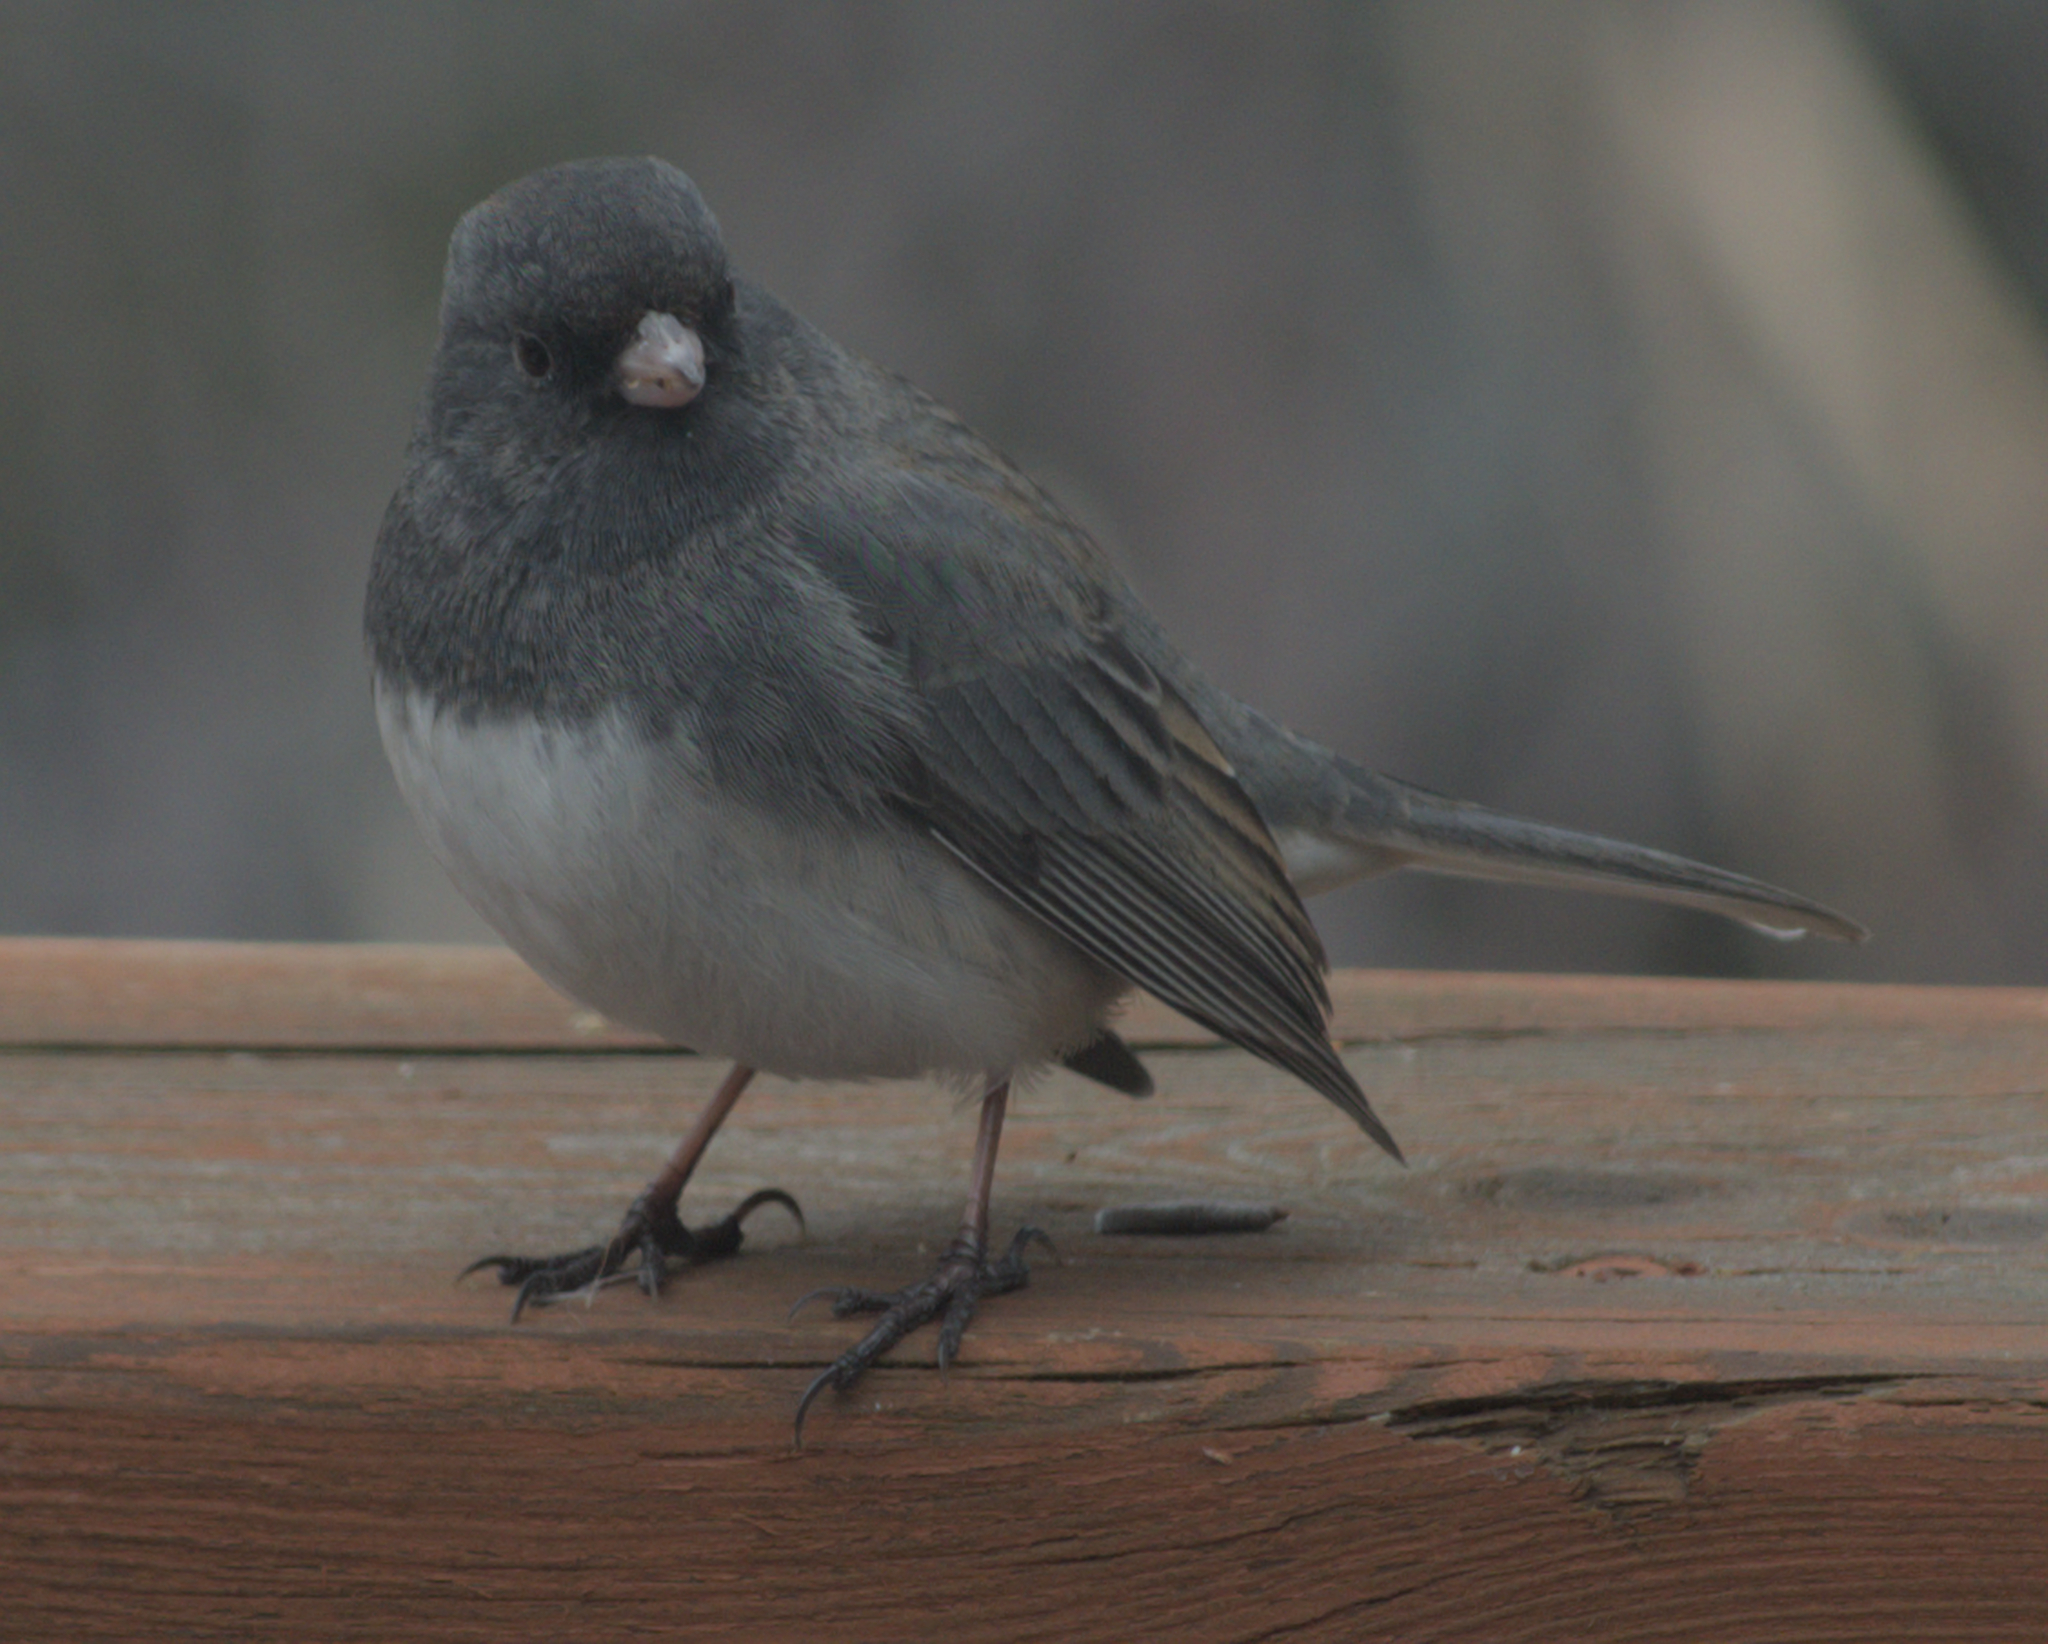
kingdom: Animalia
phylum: Chordata
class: Aves
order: Passeriformes
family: Passerellidae
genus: Junco
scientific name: Junco hyemalis
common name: Dark-eyed junco
